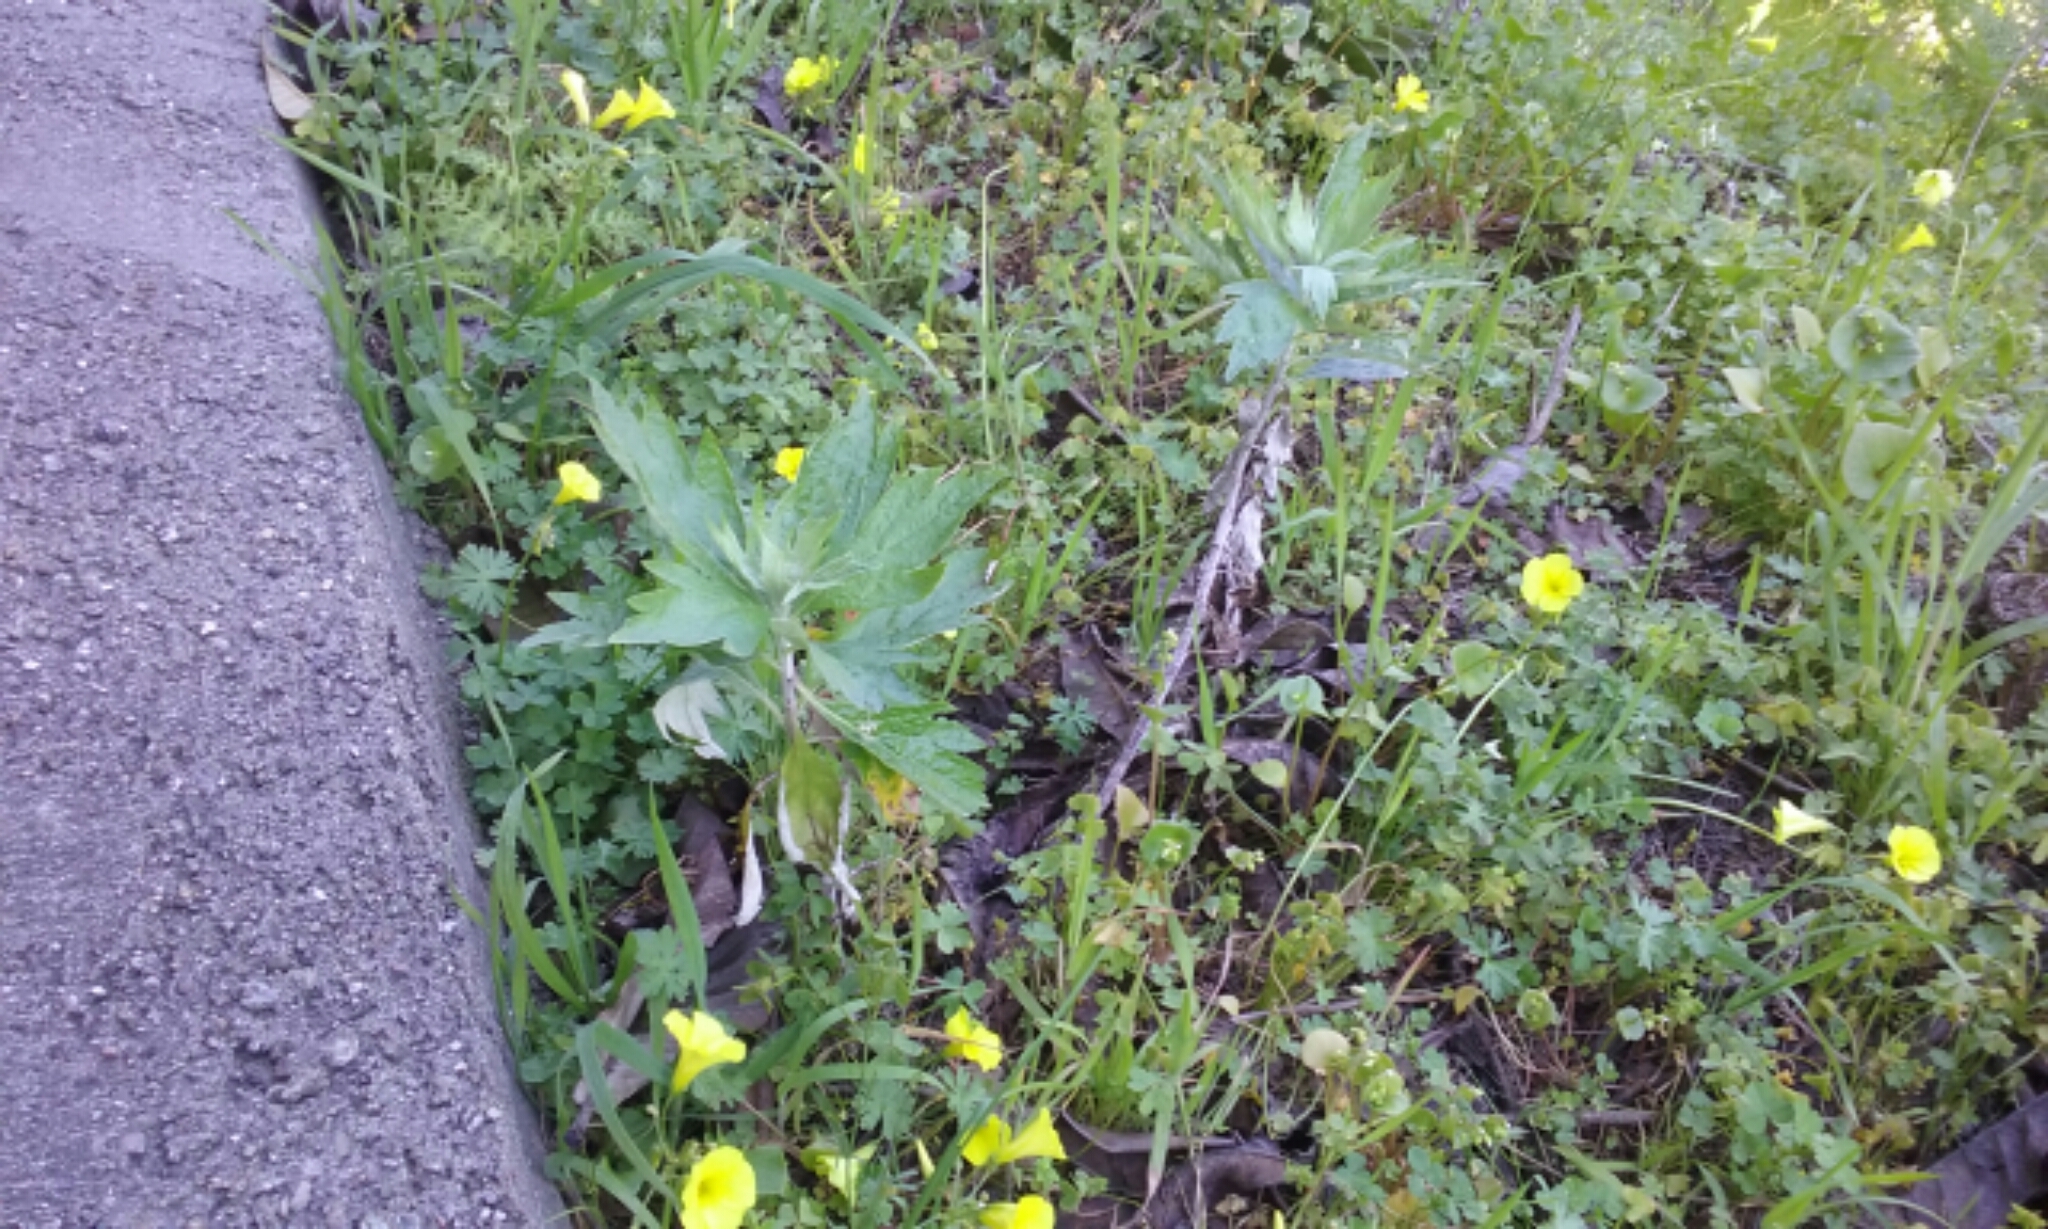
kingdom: Plantae
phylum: Tracheophyta
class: Magnoliopsida
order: Asterales
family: Asteraceae
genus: Artemisia
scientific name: Artemisia douglasiana
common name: Northwest mugwort
